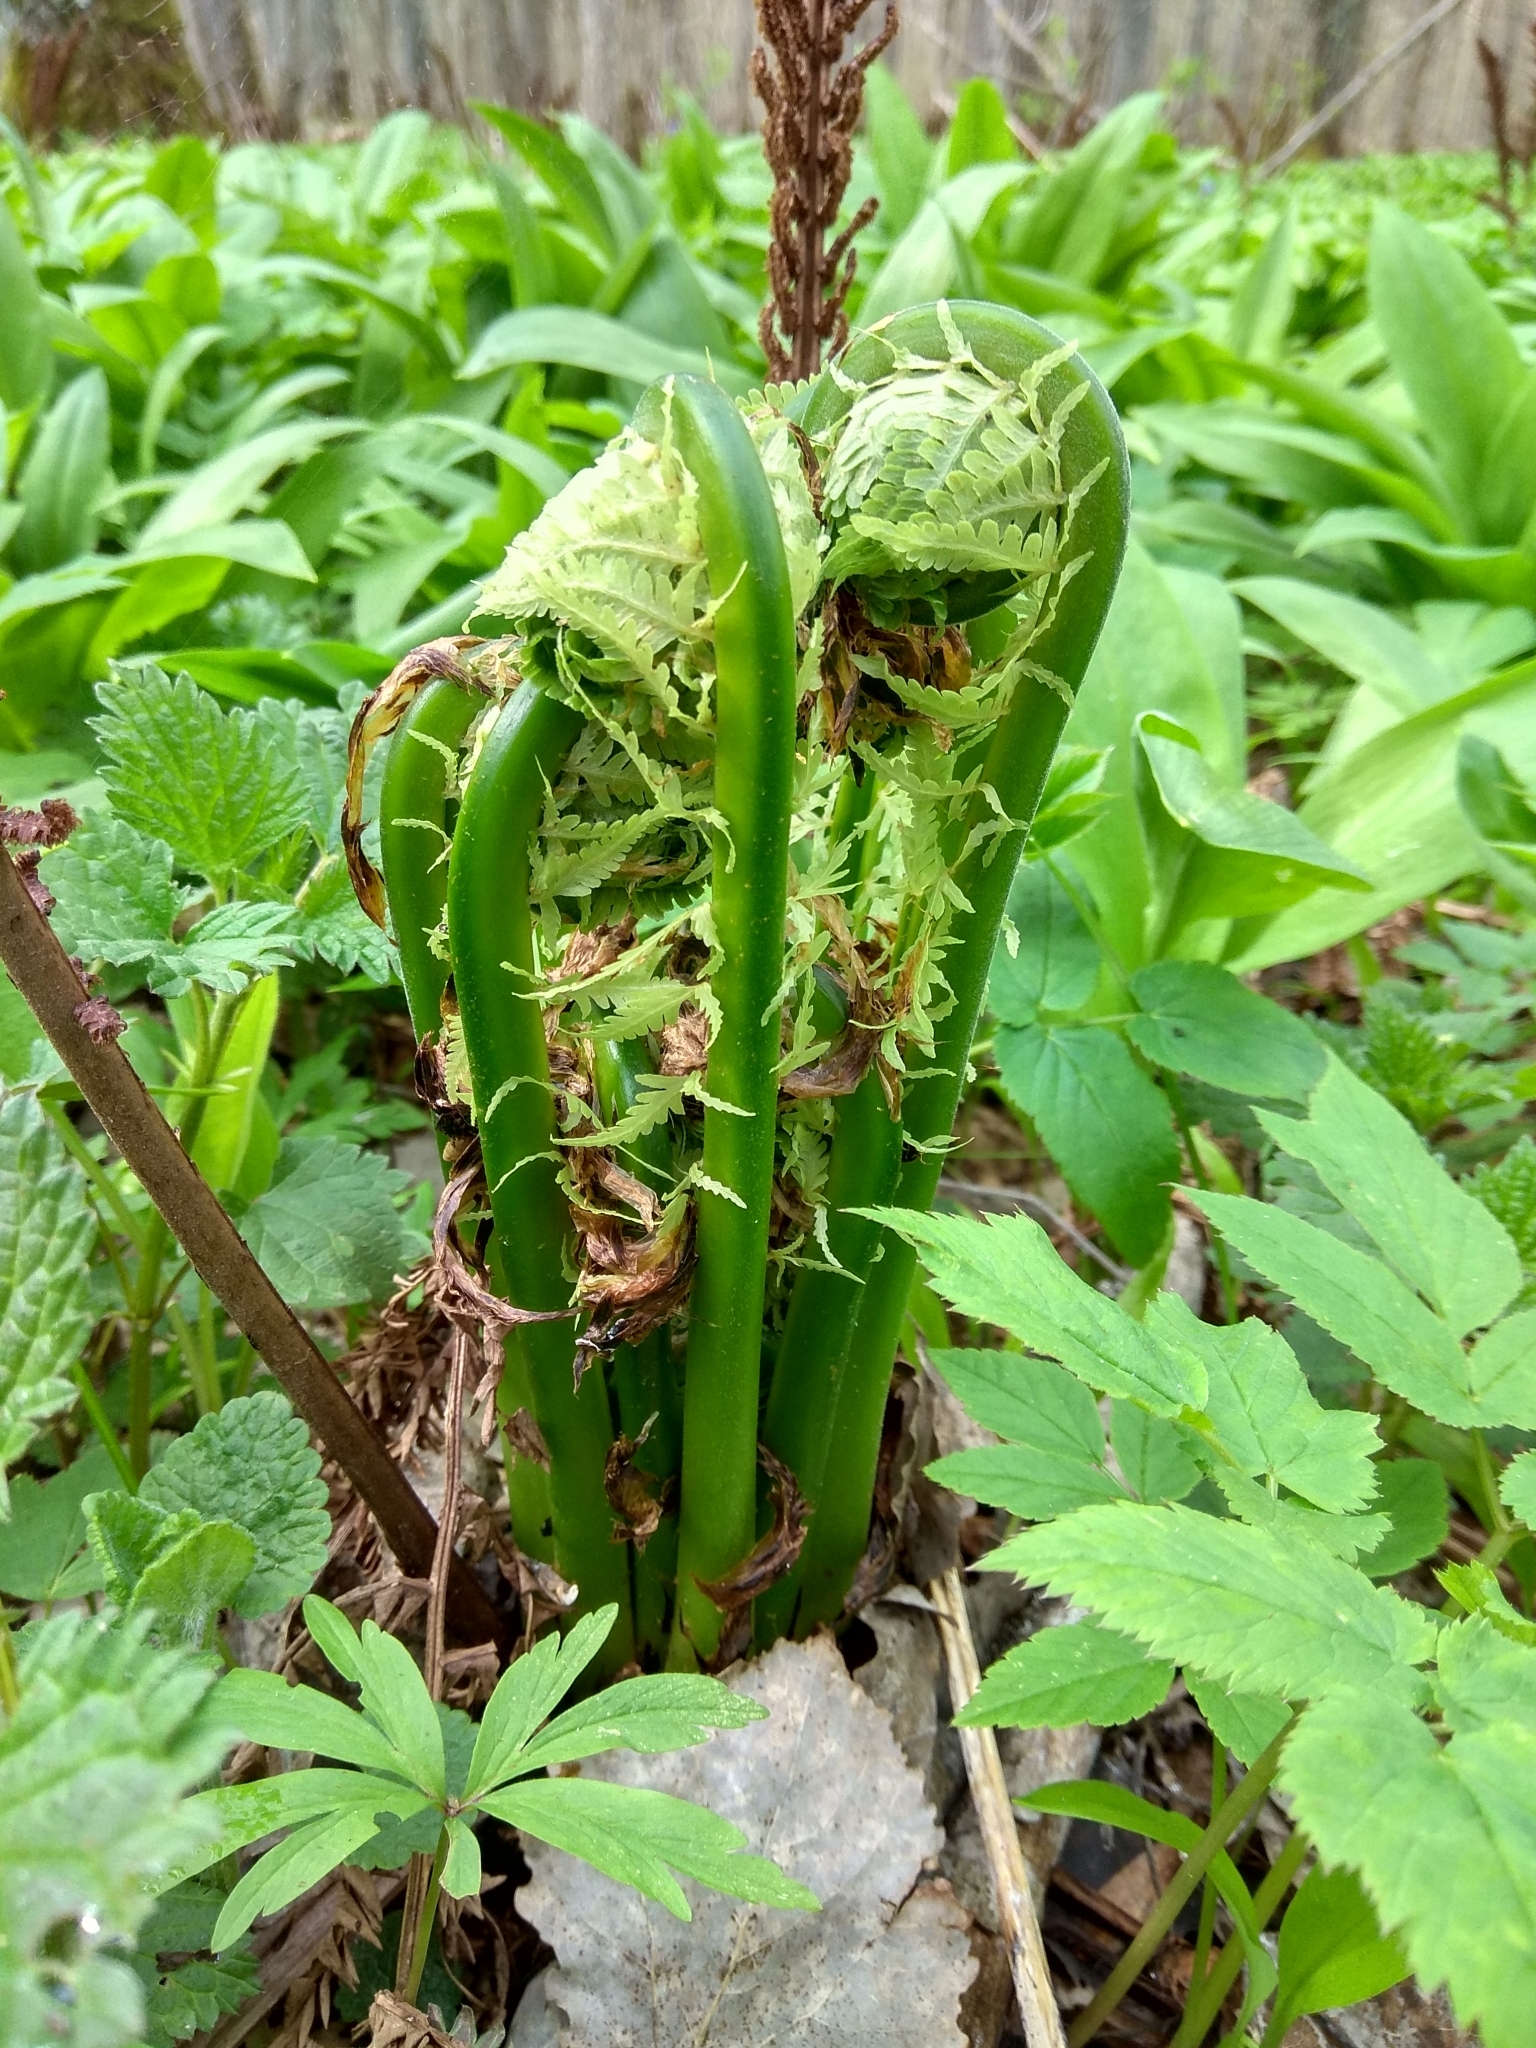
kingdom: Plantae
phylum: Tracheophyta
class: Polypodiopsida
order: Polypodiales
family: Onocleaceae
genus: Matteuccia
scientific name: Matteuccia struthiopteris
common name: Ostrich fern
